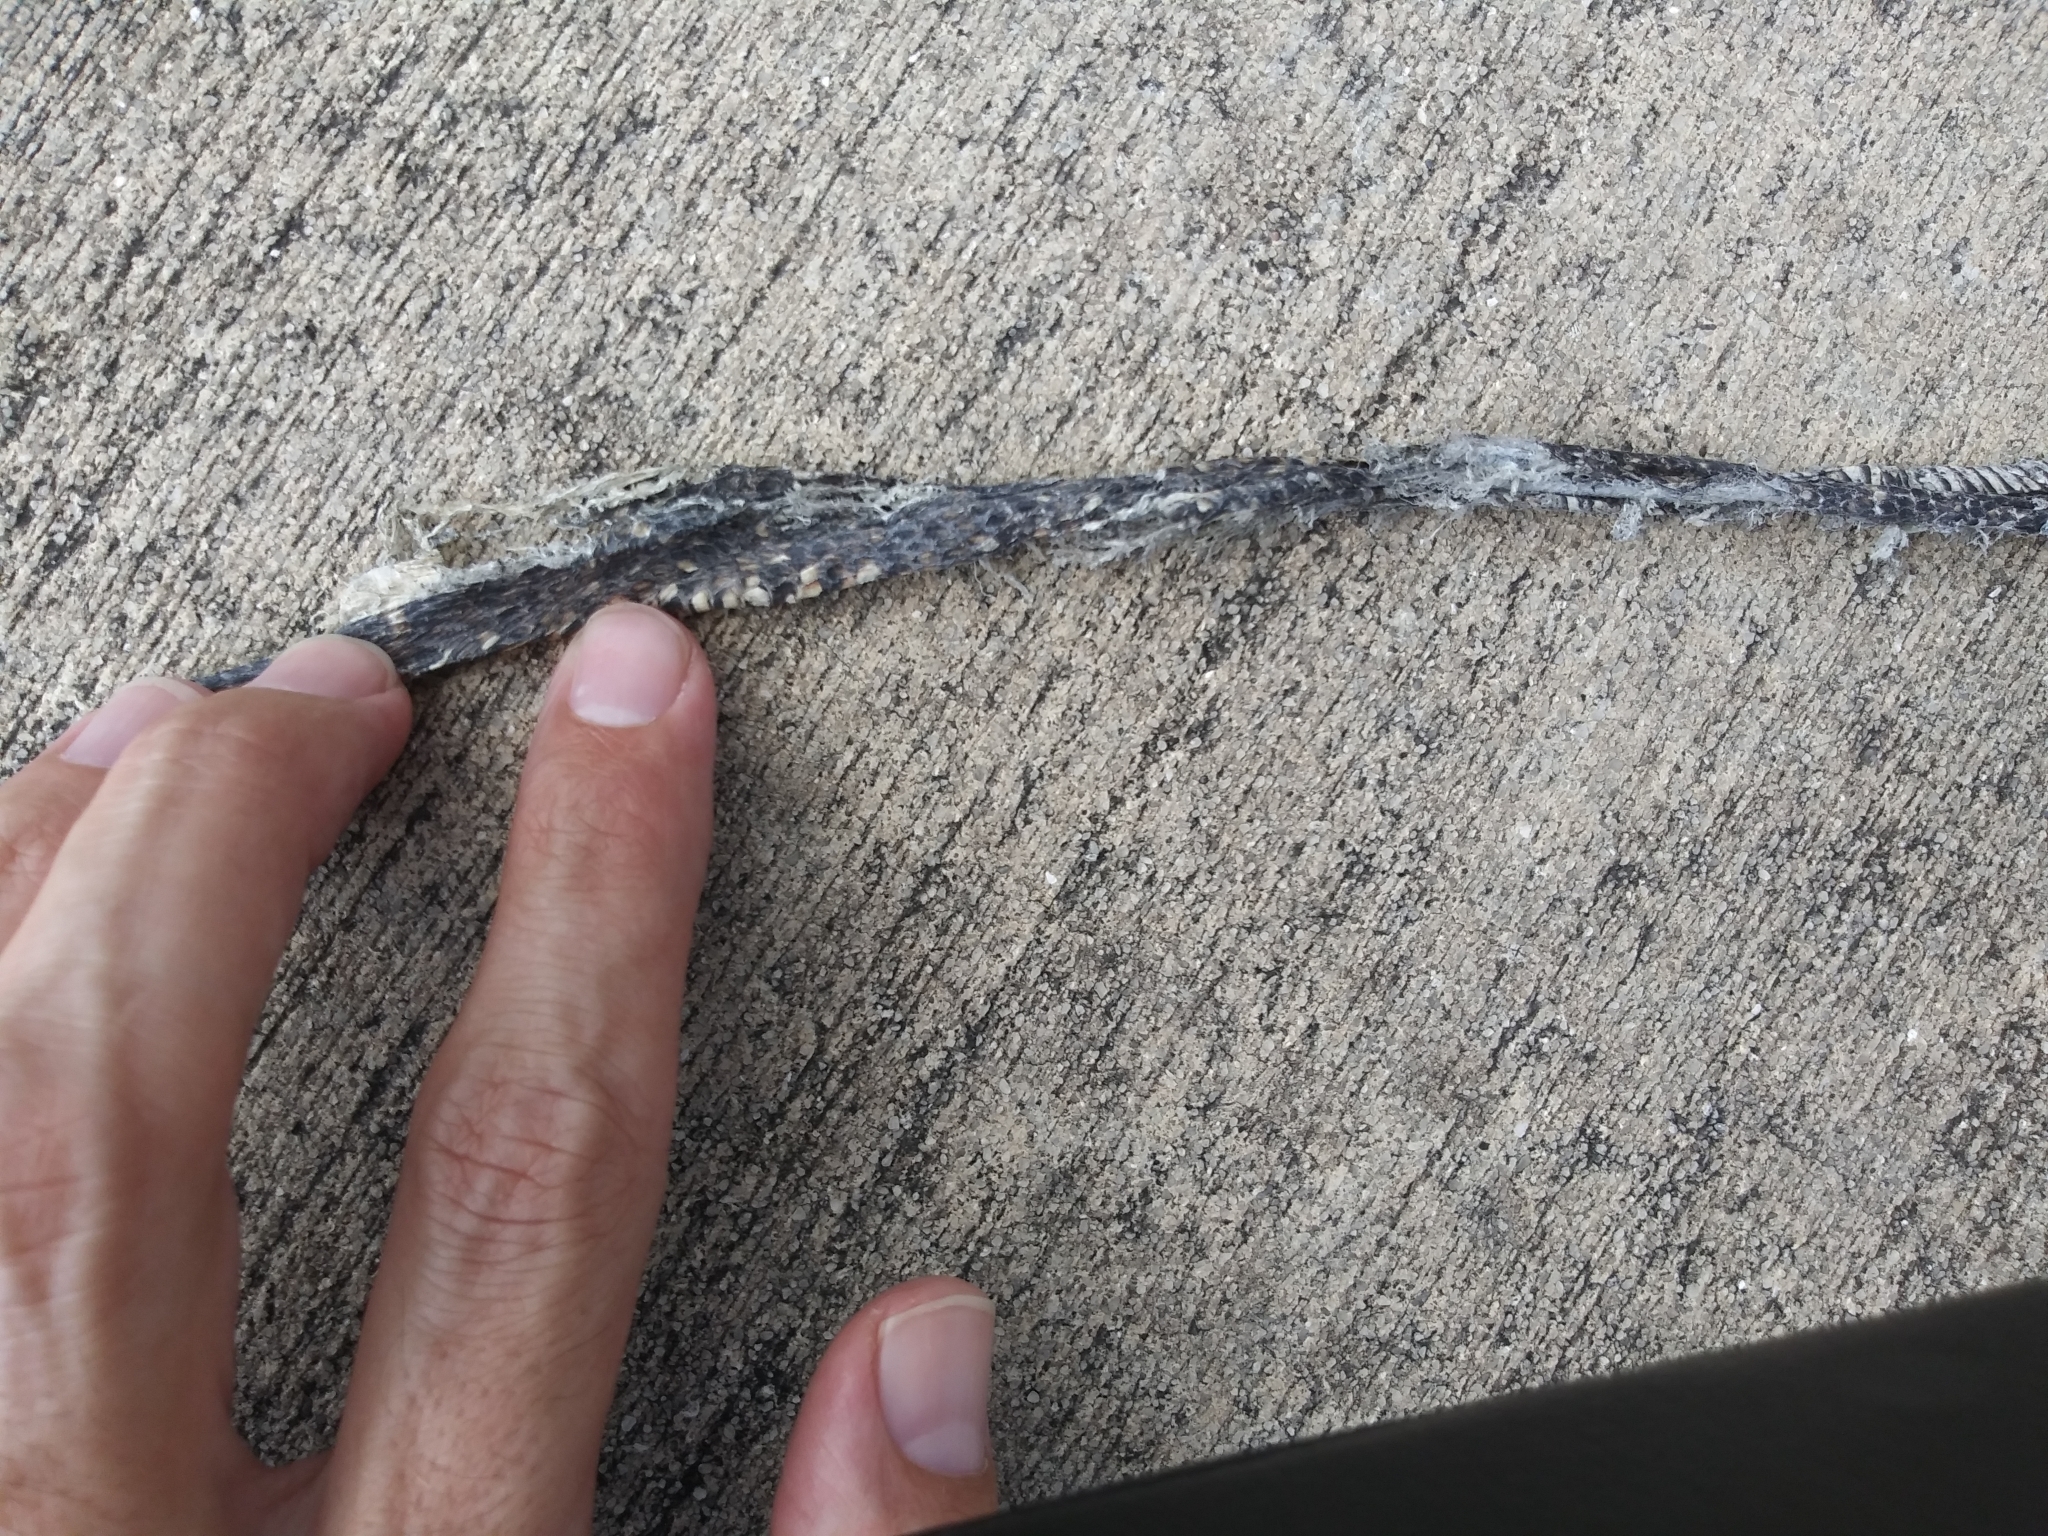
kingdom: Animalia
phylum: Chordata
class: Squamata
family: Colubridae
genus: Nerodia
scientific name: Nerodia fasciata
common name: Southern water snake
